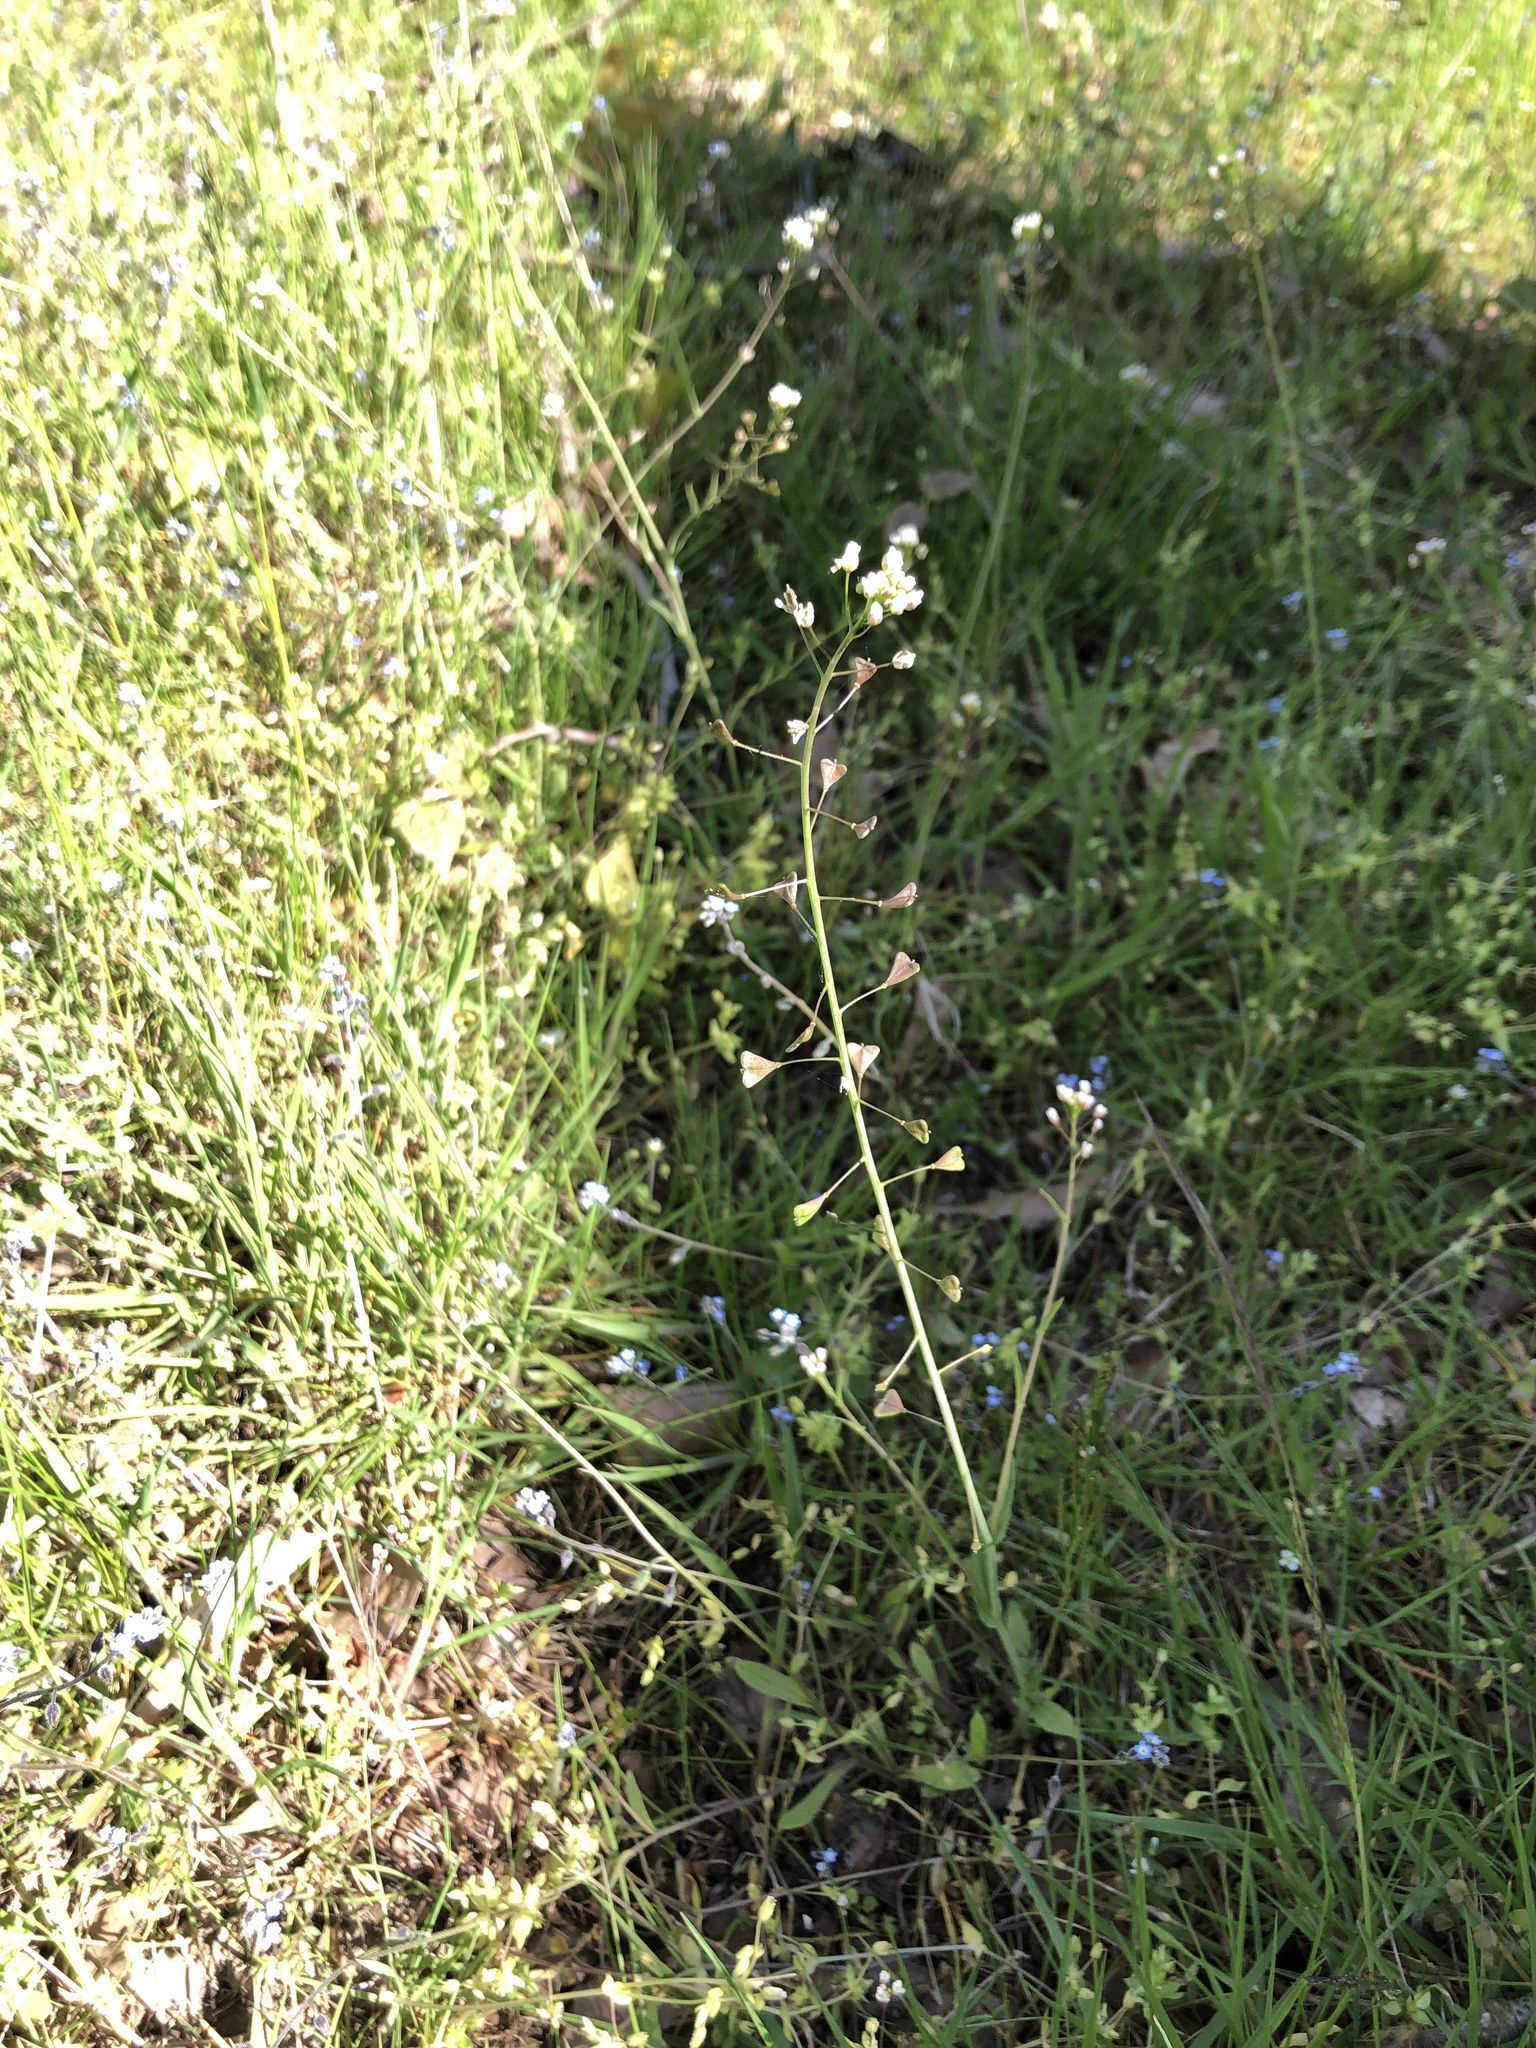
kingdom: Plantae
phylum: Tracheophyta
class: Magnoliopsida
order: Brassicales
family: Brassicaceae
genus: Capsella
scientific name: Capsella bursa-pastoris
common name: Shepherd's purse
